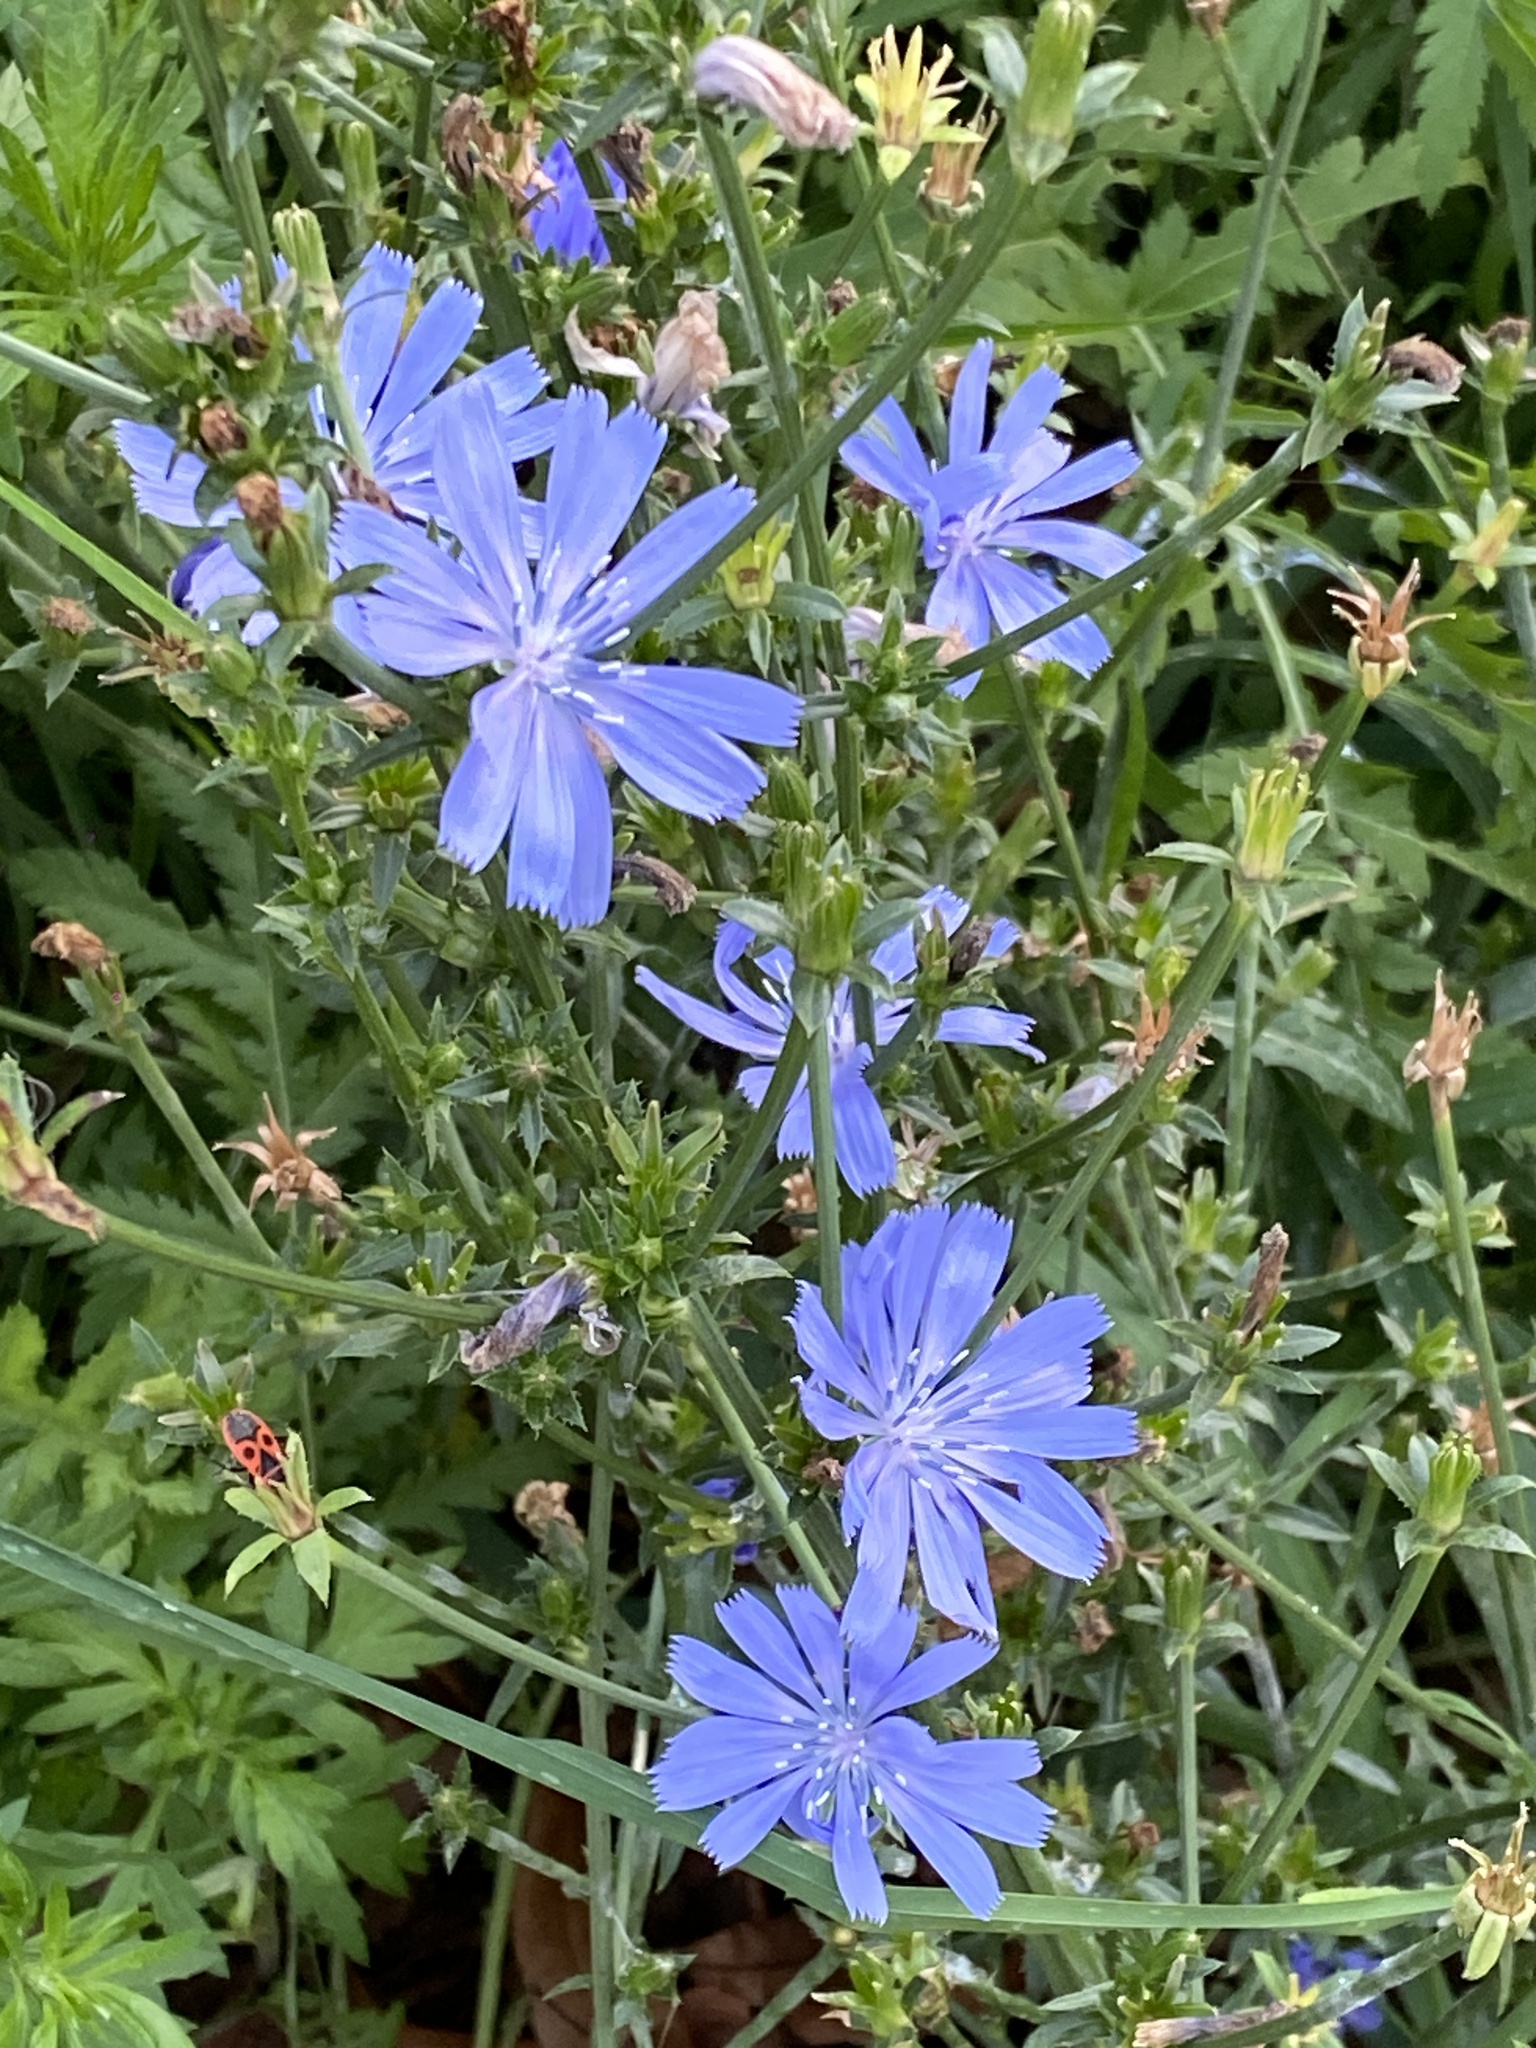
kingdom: Plantae
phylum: Tracheophyta
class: Magnoliopsida
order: Asterales
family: Asteraceae
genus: Cichorium
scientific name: Cichorium intybus
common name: Chicory
